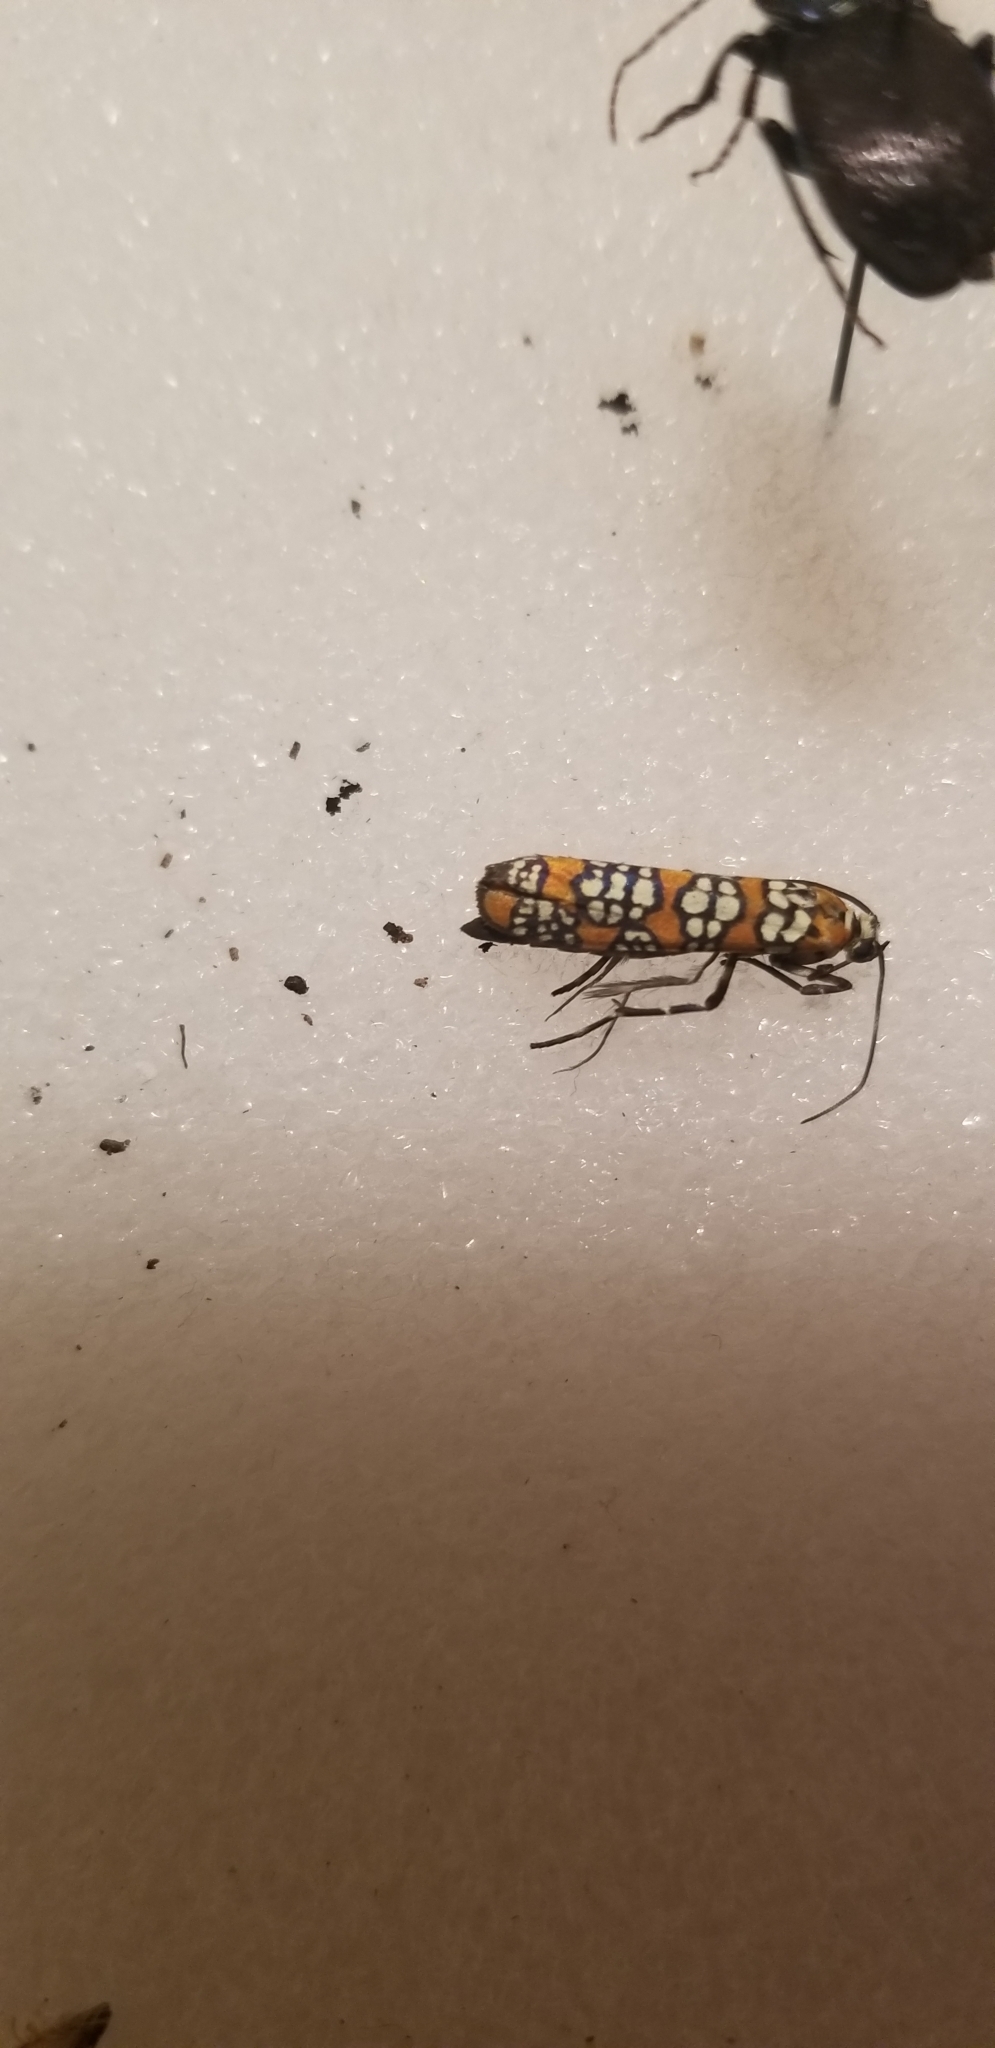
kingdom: Animalia
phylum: Arthropoda
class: Insecta
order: Lepidoptera
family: Attevidae
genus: Atteva
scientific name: Atteva punctella
